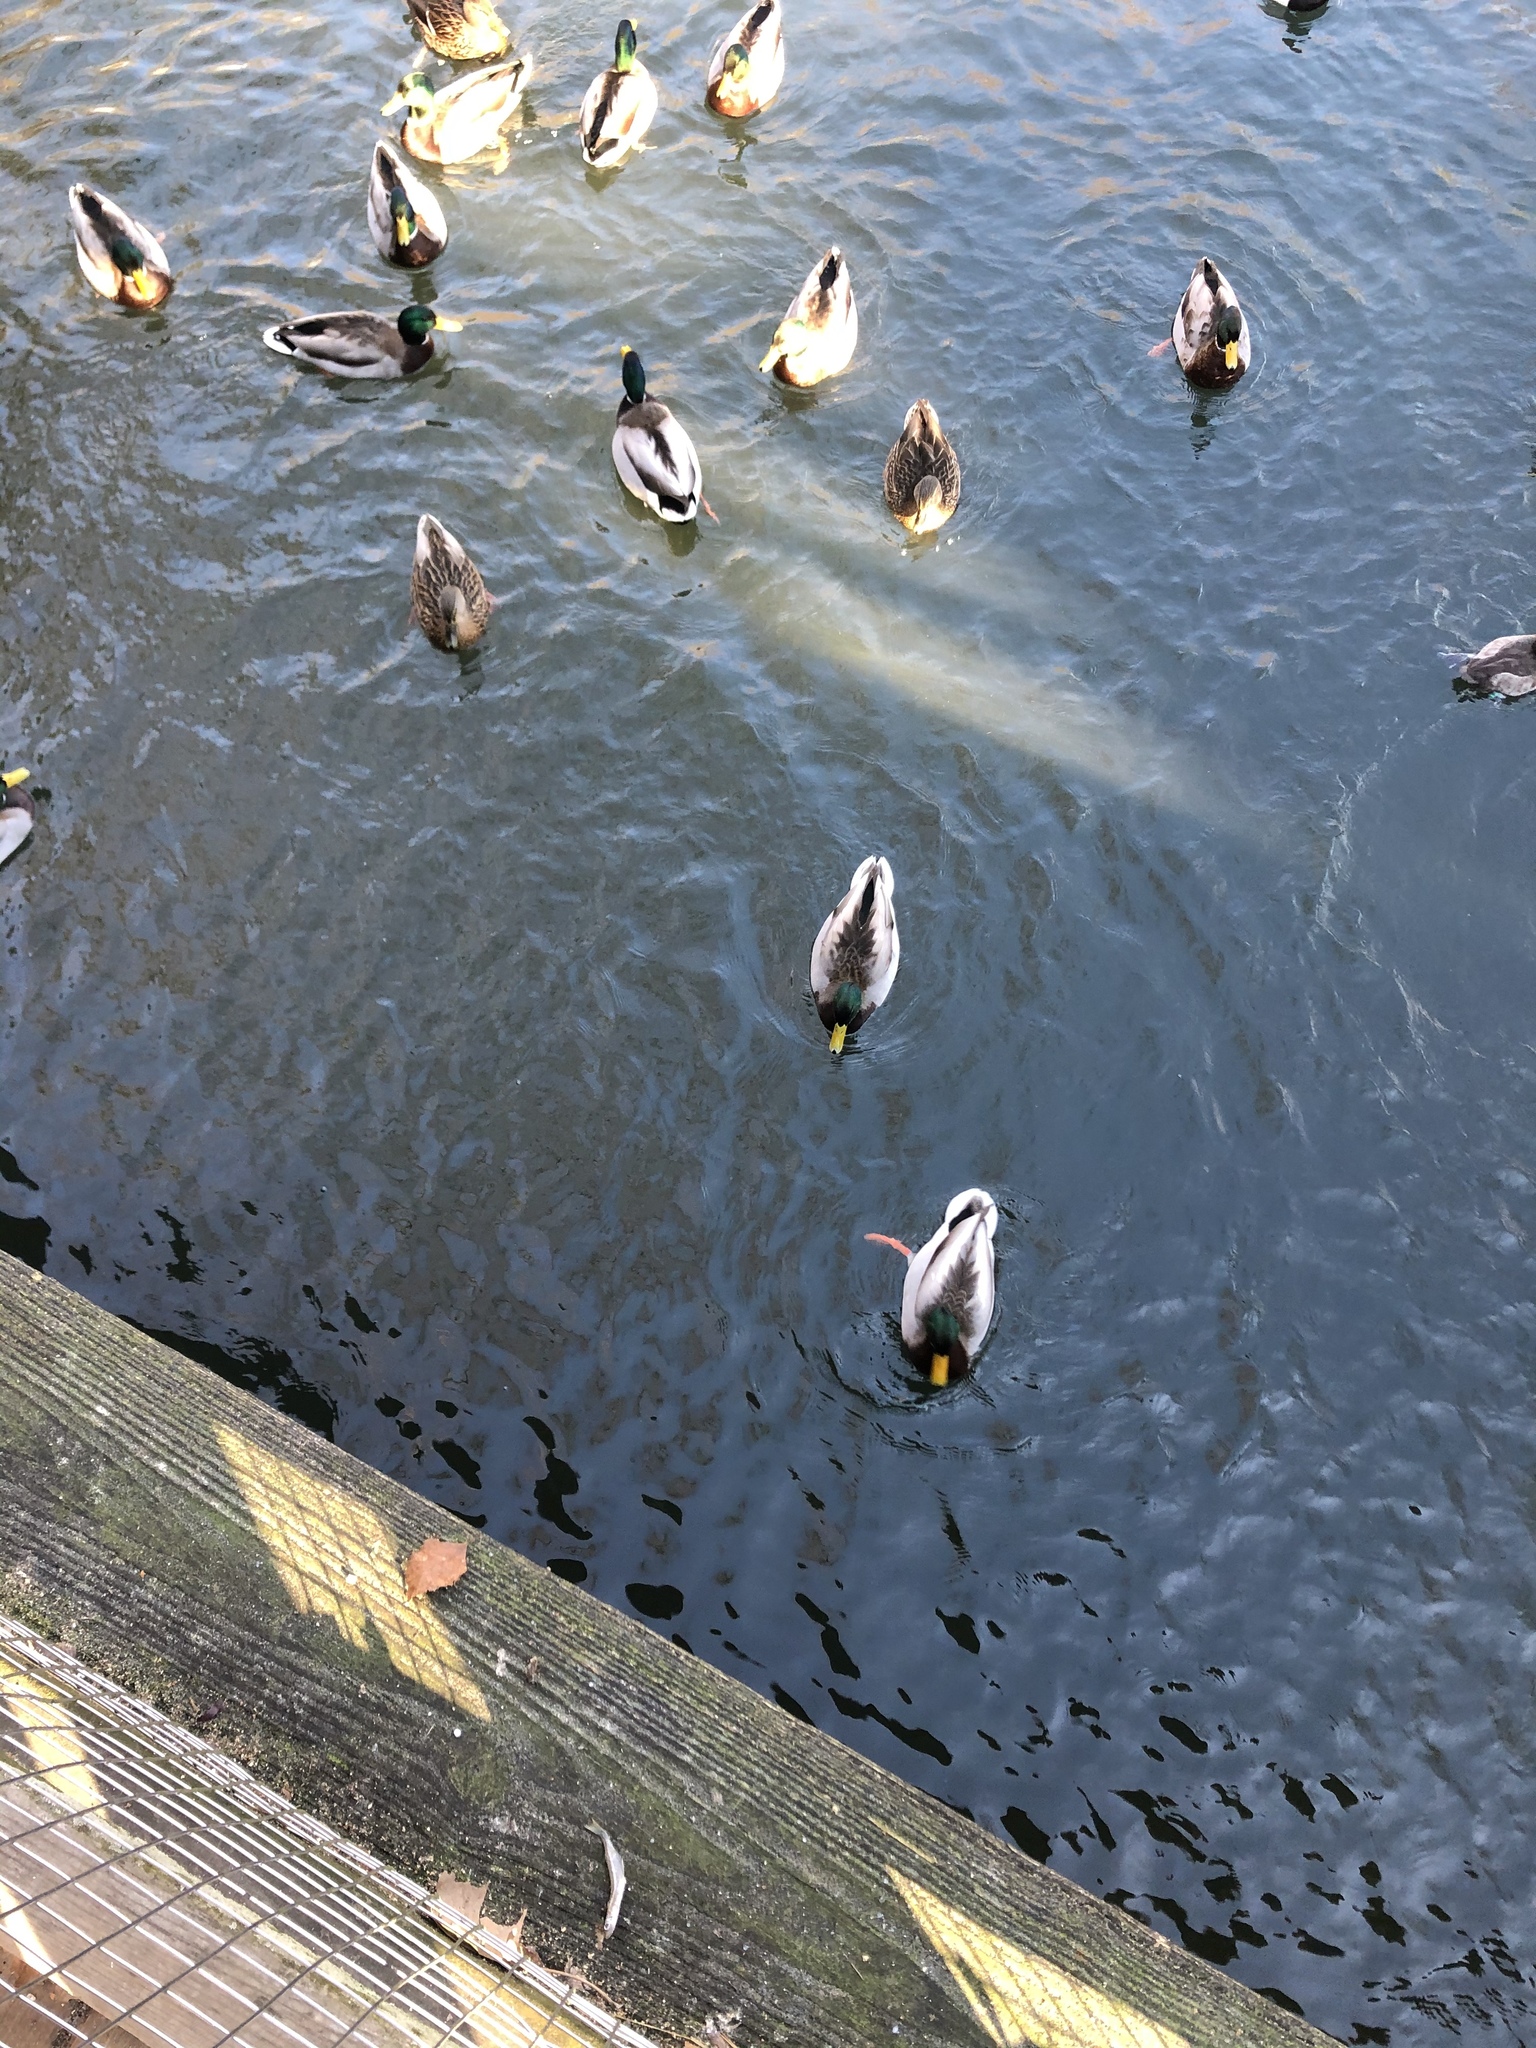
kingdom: Animalia
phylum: Chordata
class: Aves
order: Anseriformes
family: Anatidae
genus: Anas
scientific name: Anas platyrhynchos
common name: Mallard
